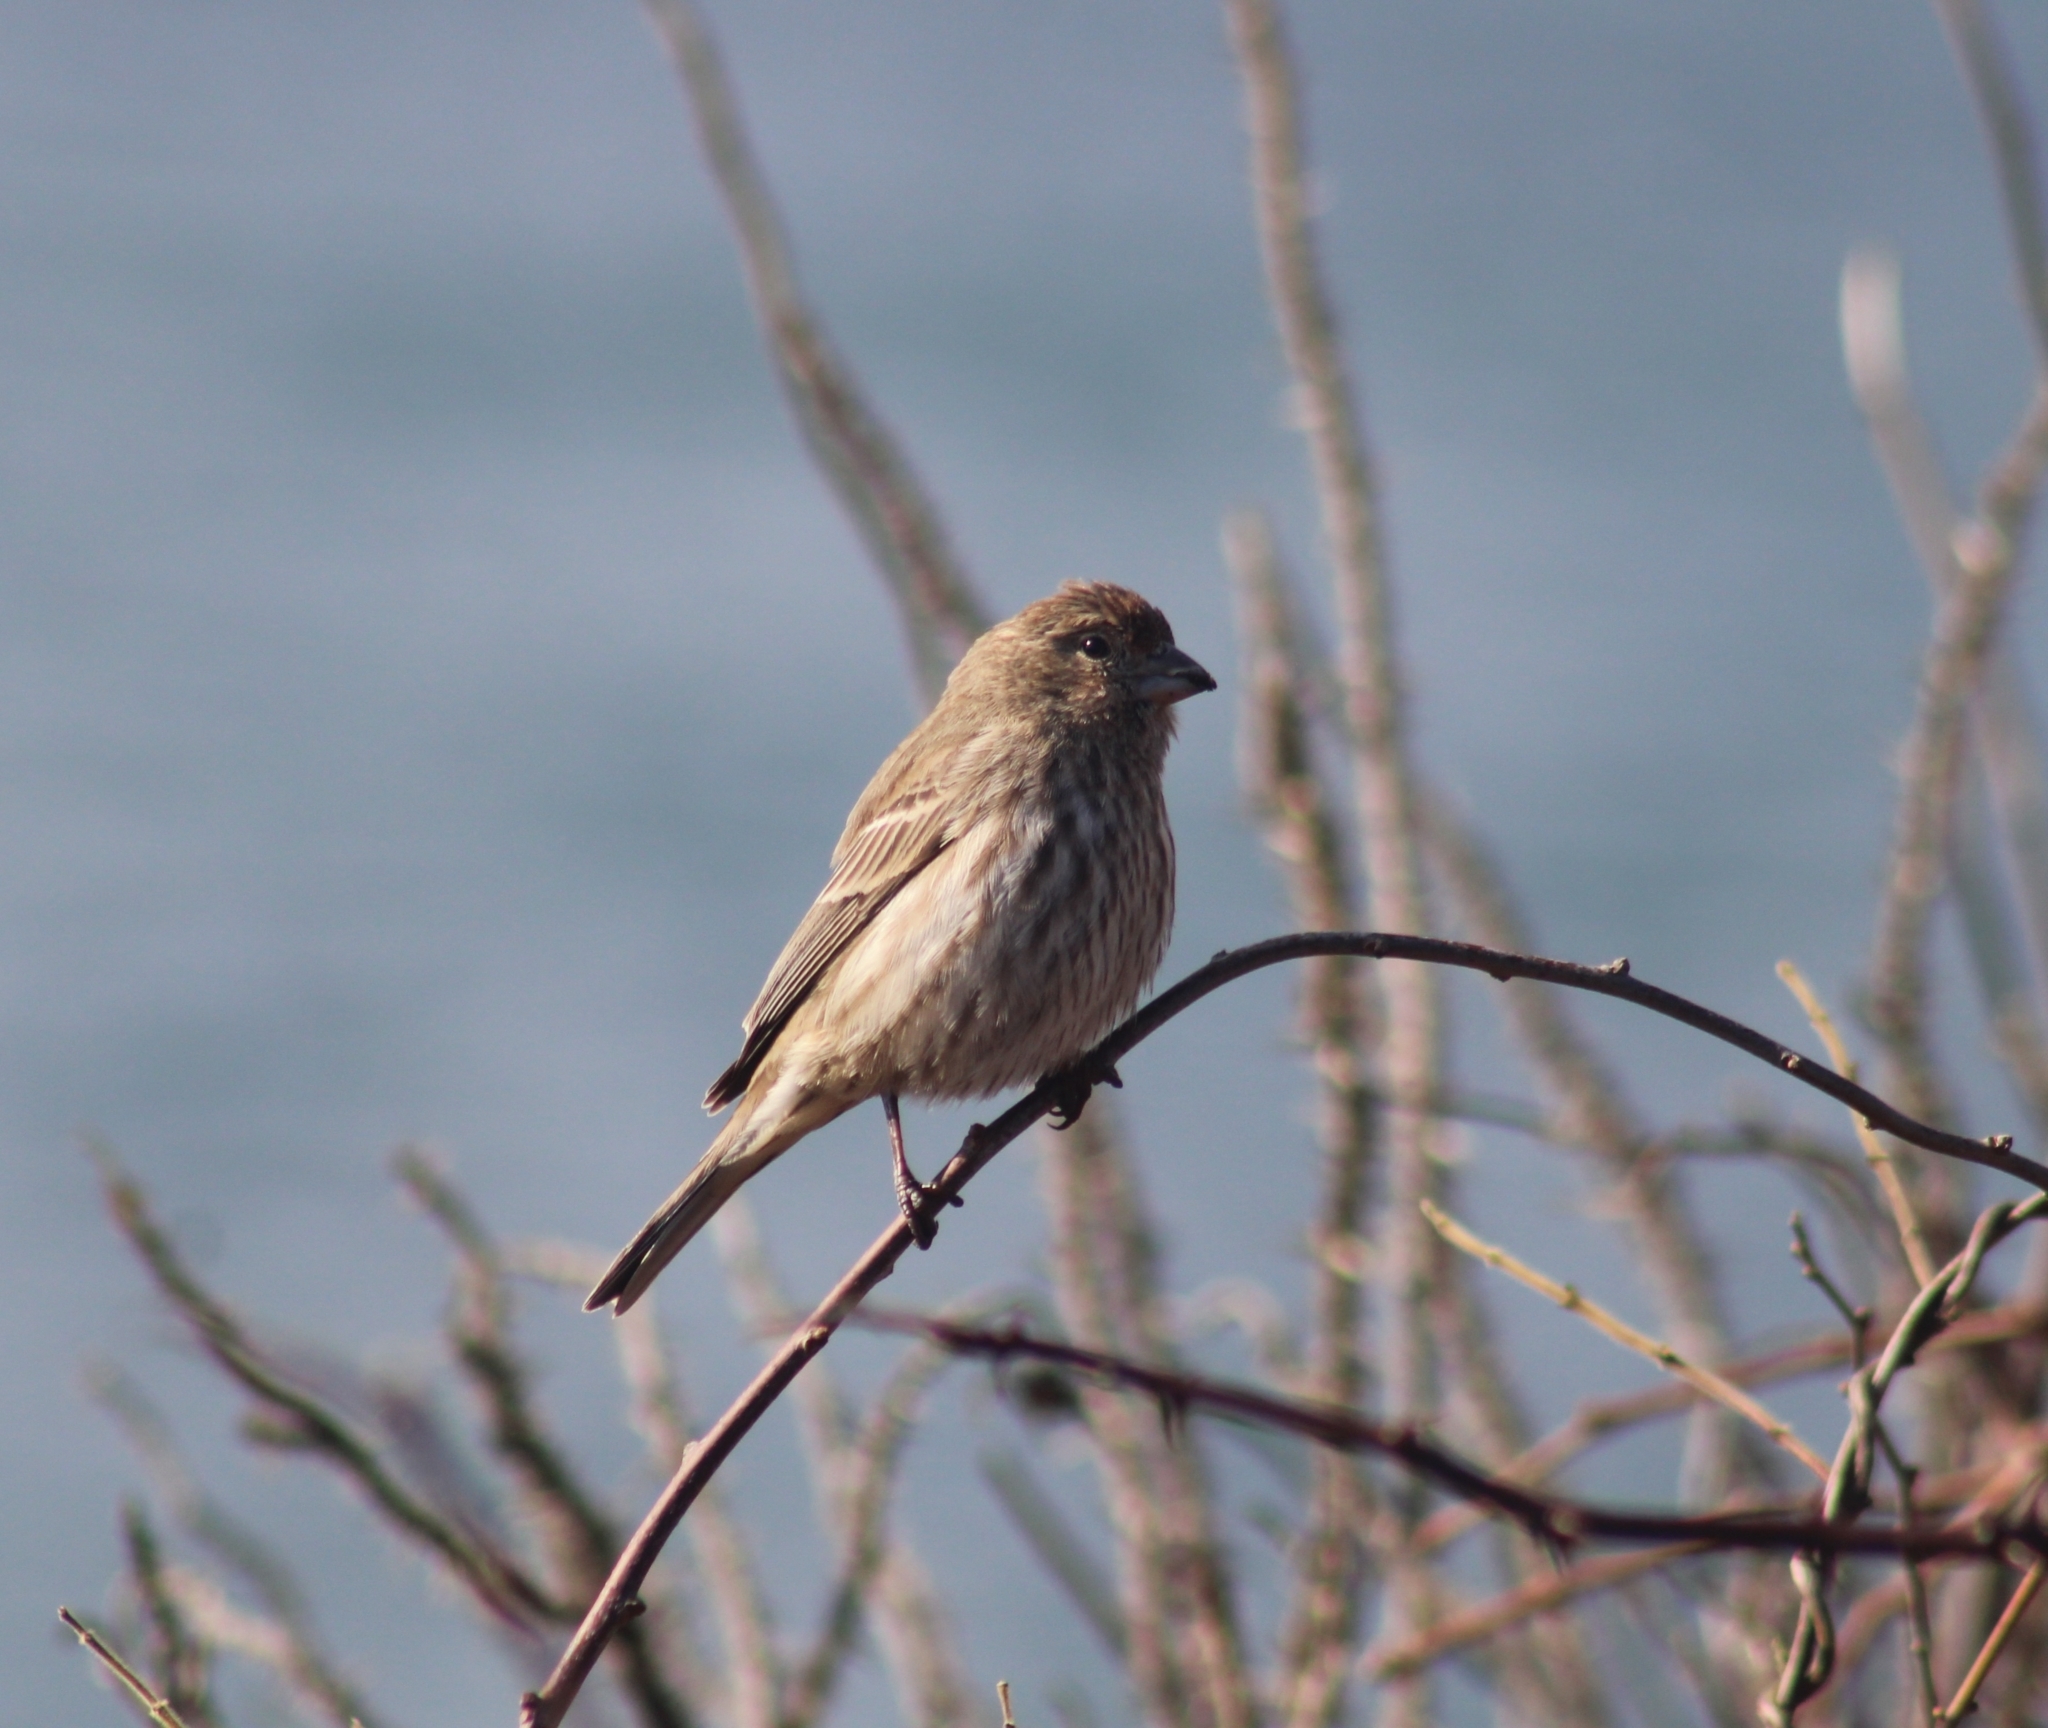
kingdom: Animalia
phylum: Chordata
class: Aves
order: Passeriformes
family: Fringillidae
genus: Haemorhous
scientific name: Haemorhous mexicanus
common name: House finch
